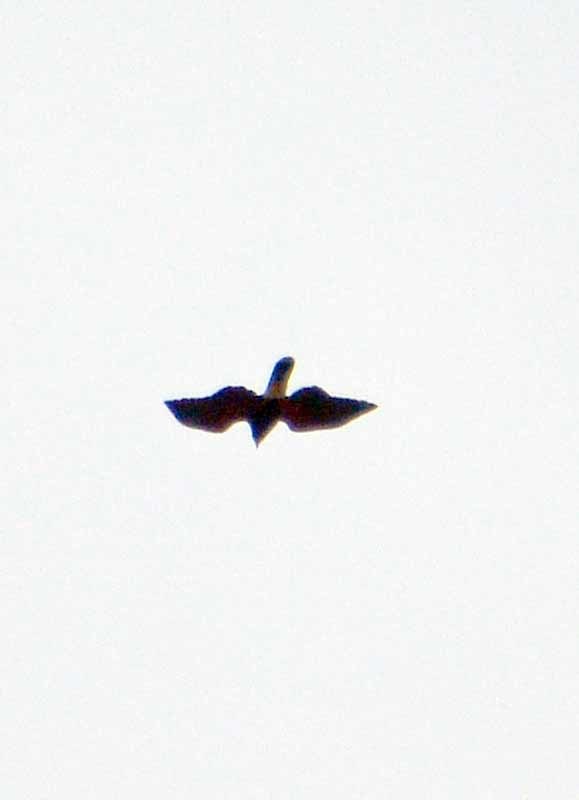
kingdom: Animalia
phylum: Chordata
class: Aves
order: Accipitriformes
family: Accipitridae
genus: Parabuteo
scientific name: Parabuteo unicinctus
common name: Harris's hawk
